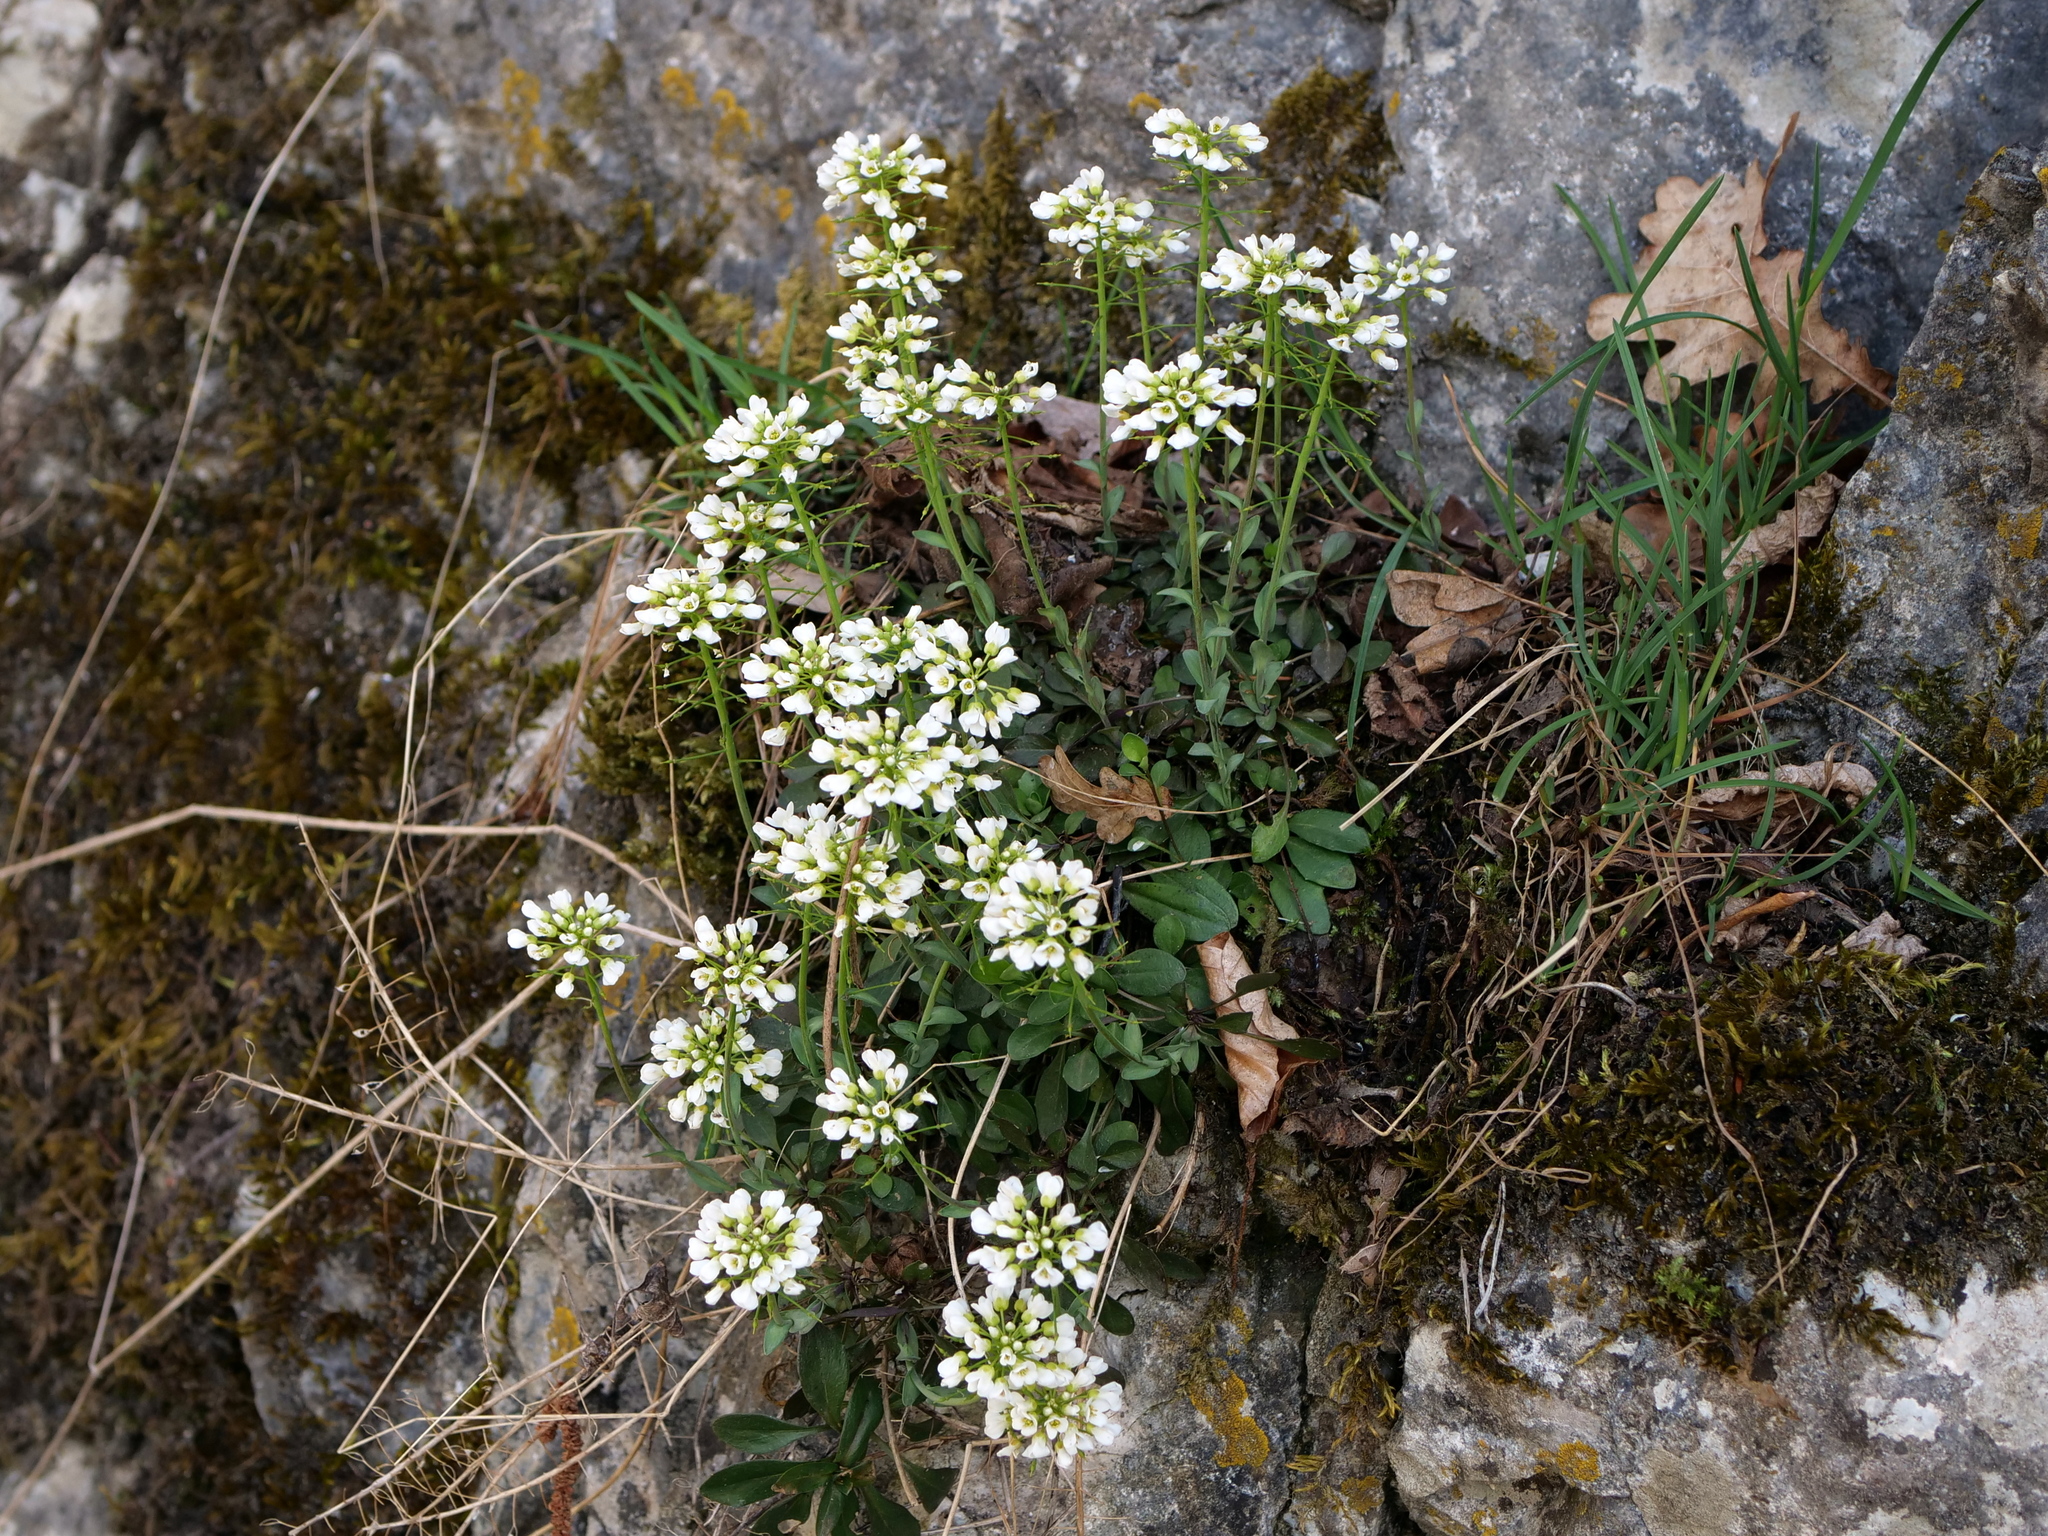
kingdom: Plantae
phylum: Tracheophyta
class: Magnoliopsida
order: Brassicales
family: Brassicaceae
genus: Noccaea
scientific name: Noccaea montana
